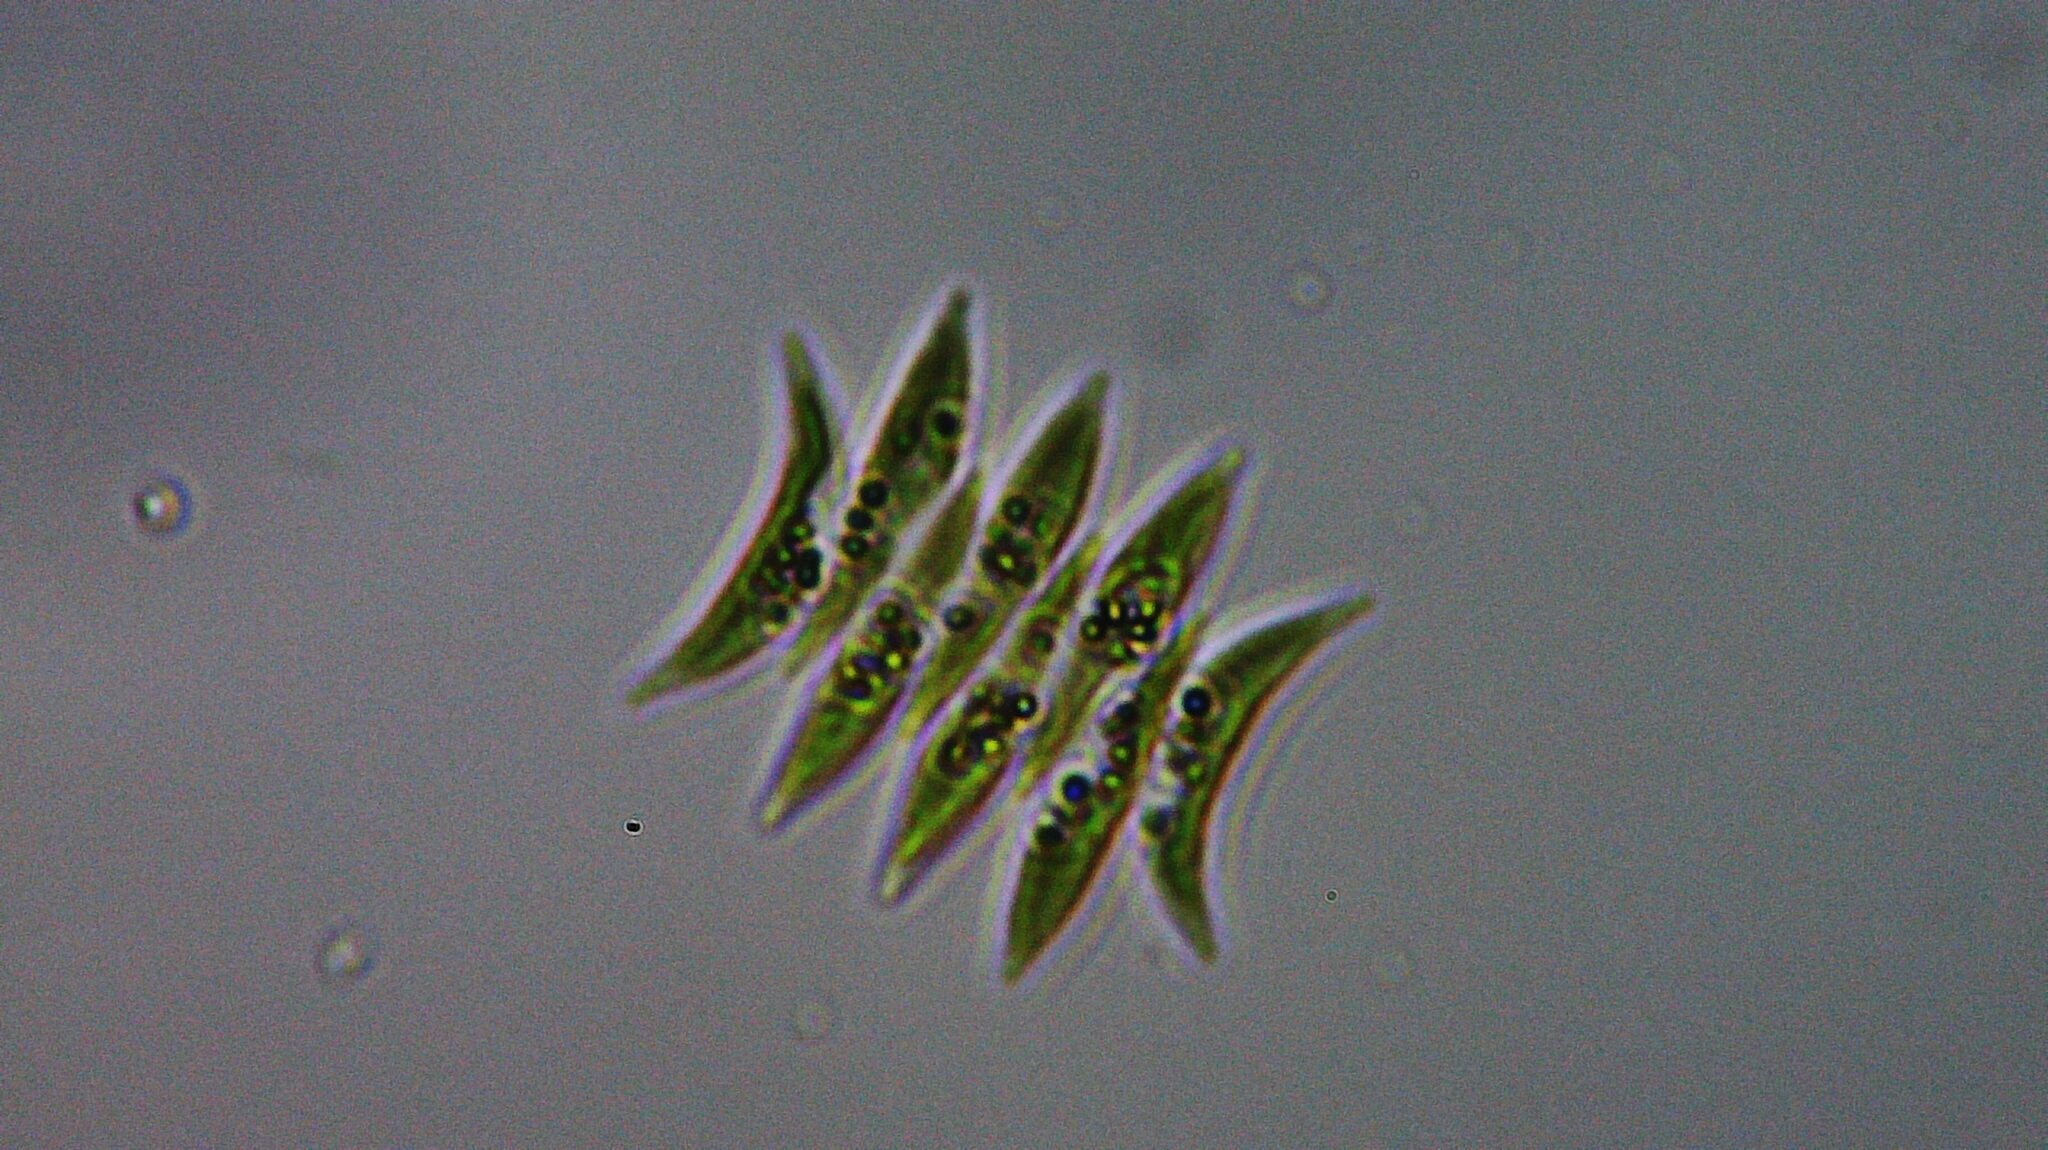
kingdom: Plantae
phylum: Chlorophyta
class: Chlorophyceae
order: Sphaeropleales
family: Scenedesmaceae
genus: Tetradesmus
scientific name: Tetradesmus lagerheimii
